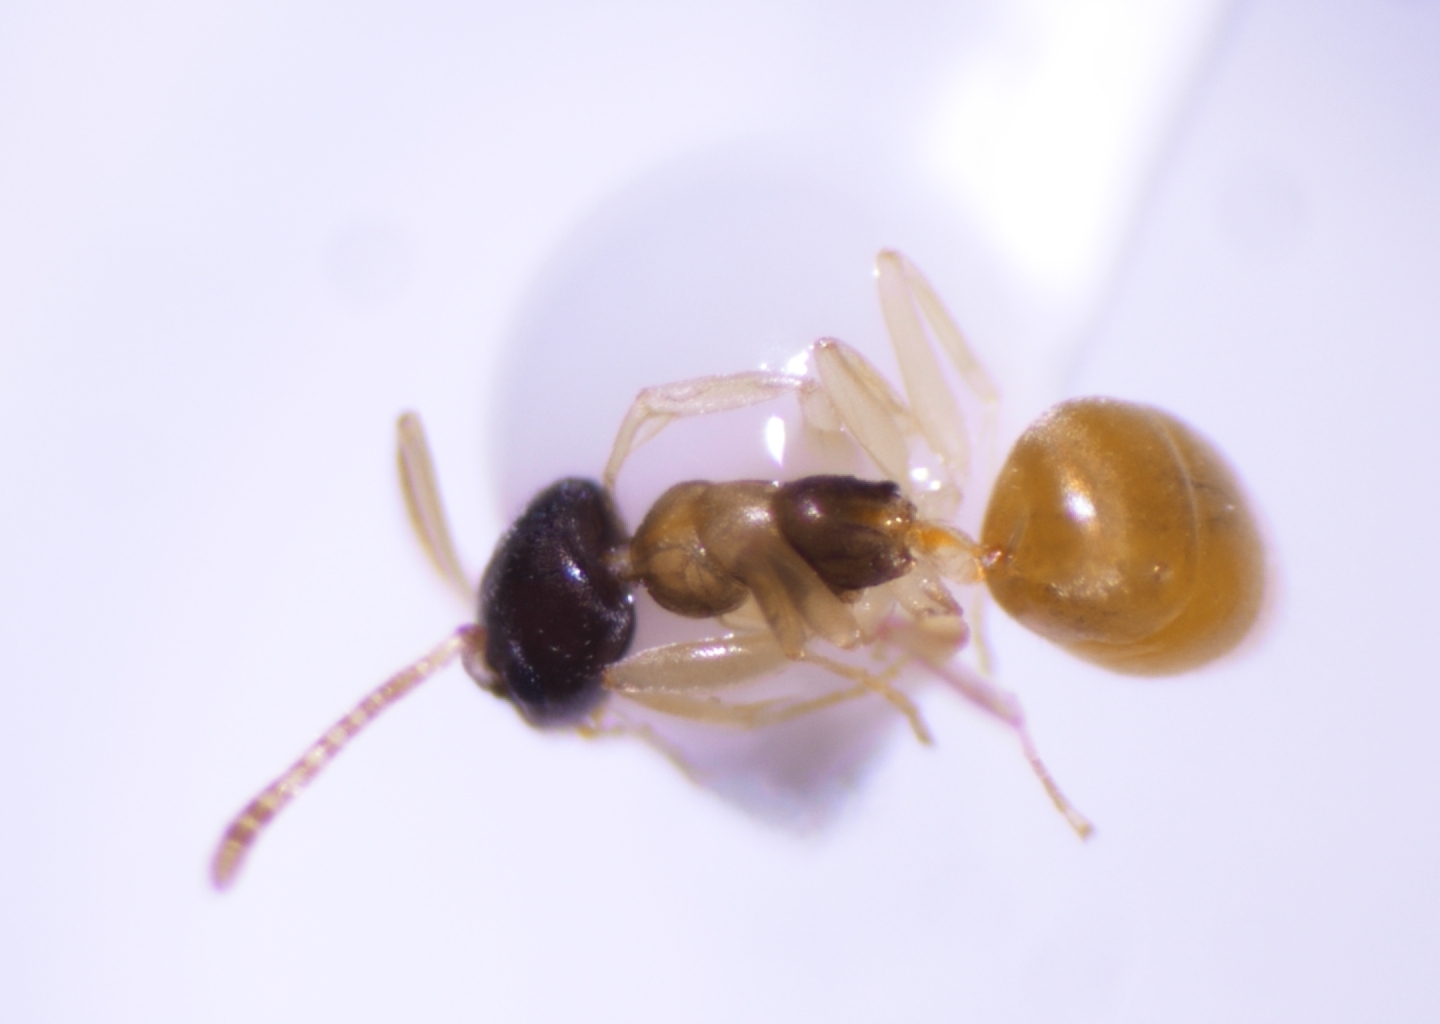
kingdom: Animalia
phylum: Arthropoda
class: Insecta
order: Hymenoptera
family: Formicidae
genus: Tapinoma
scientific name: Tapinoma melanocephalum
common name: Ghost ant
